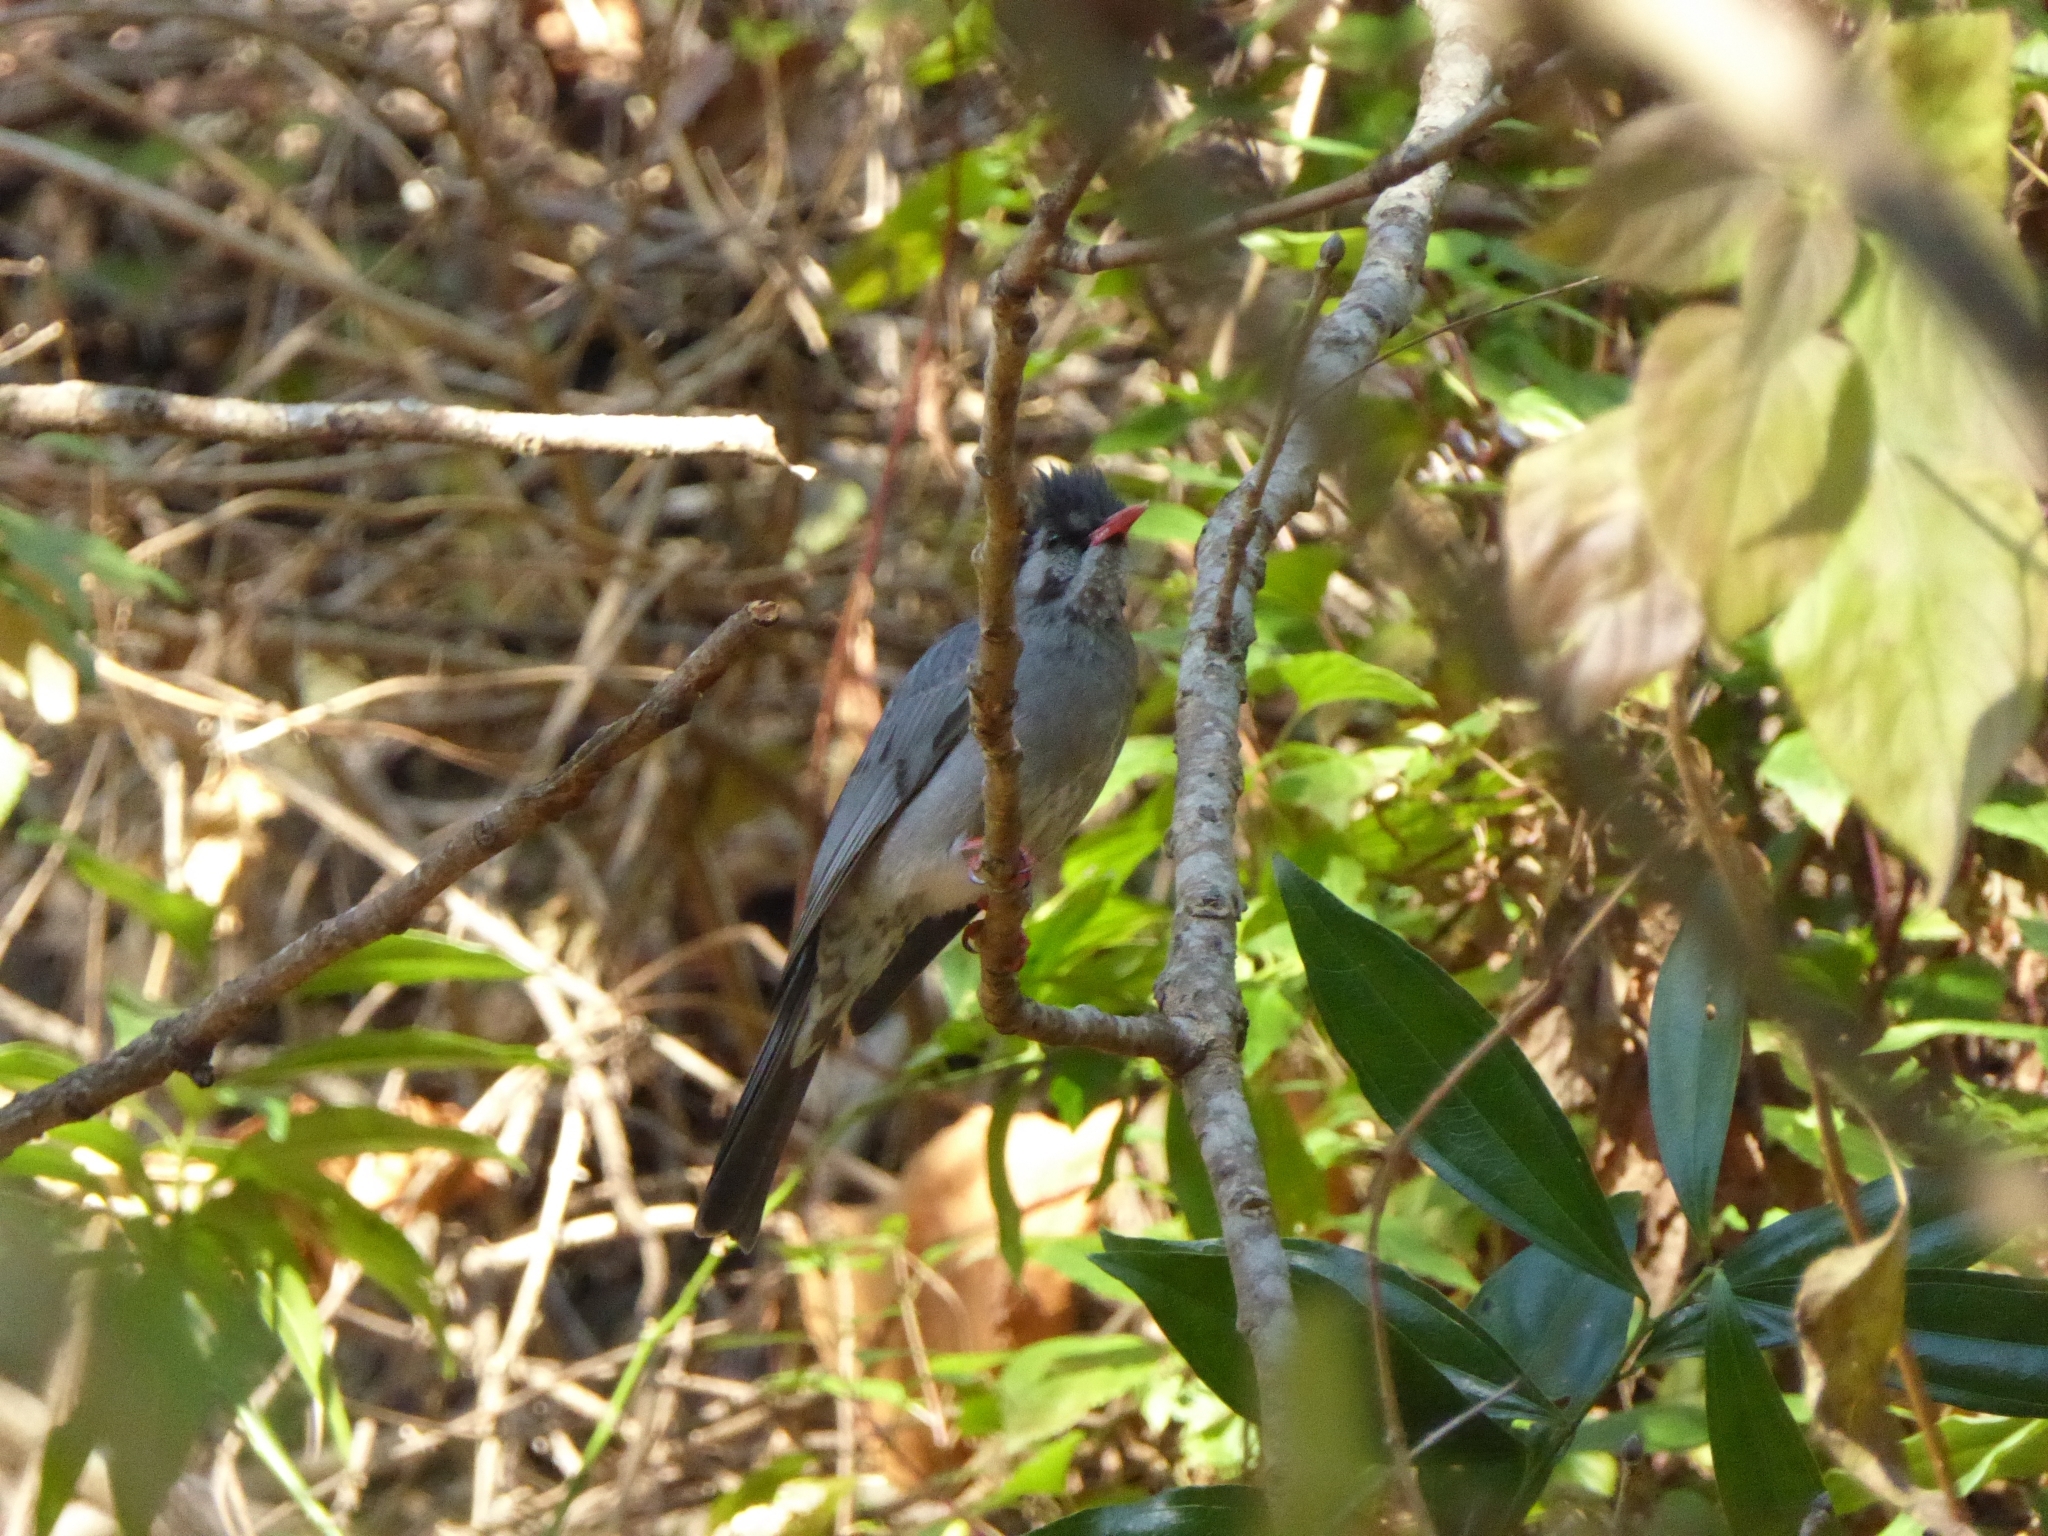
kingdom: Animalia
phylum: Chordata
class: Aves
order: Passeriformes
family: Pycnonotidae
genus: Hypsipetes
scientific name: Hypsipetes leucocephalus
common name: Black bulbul
